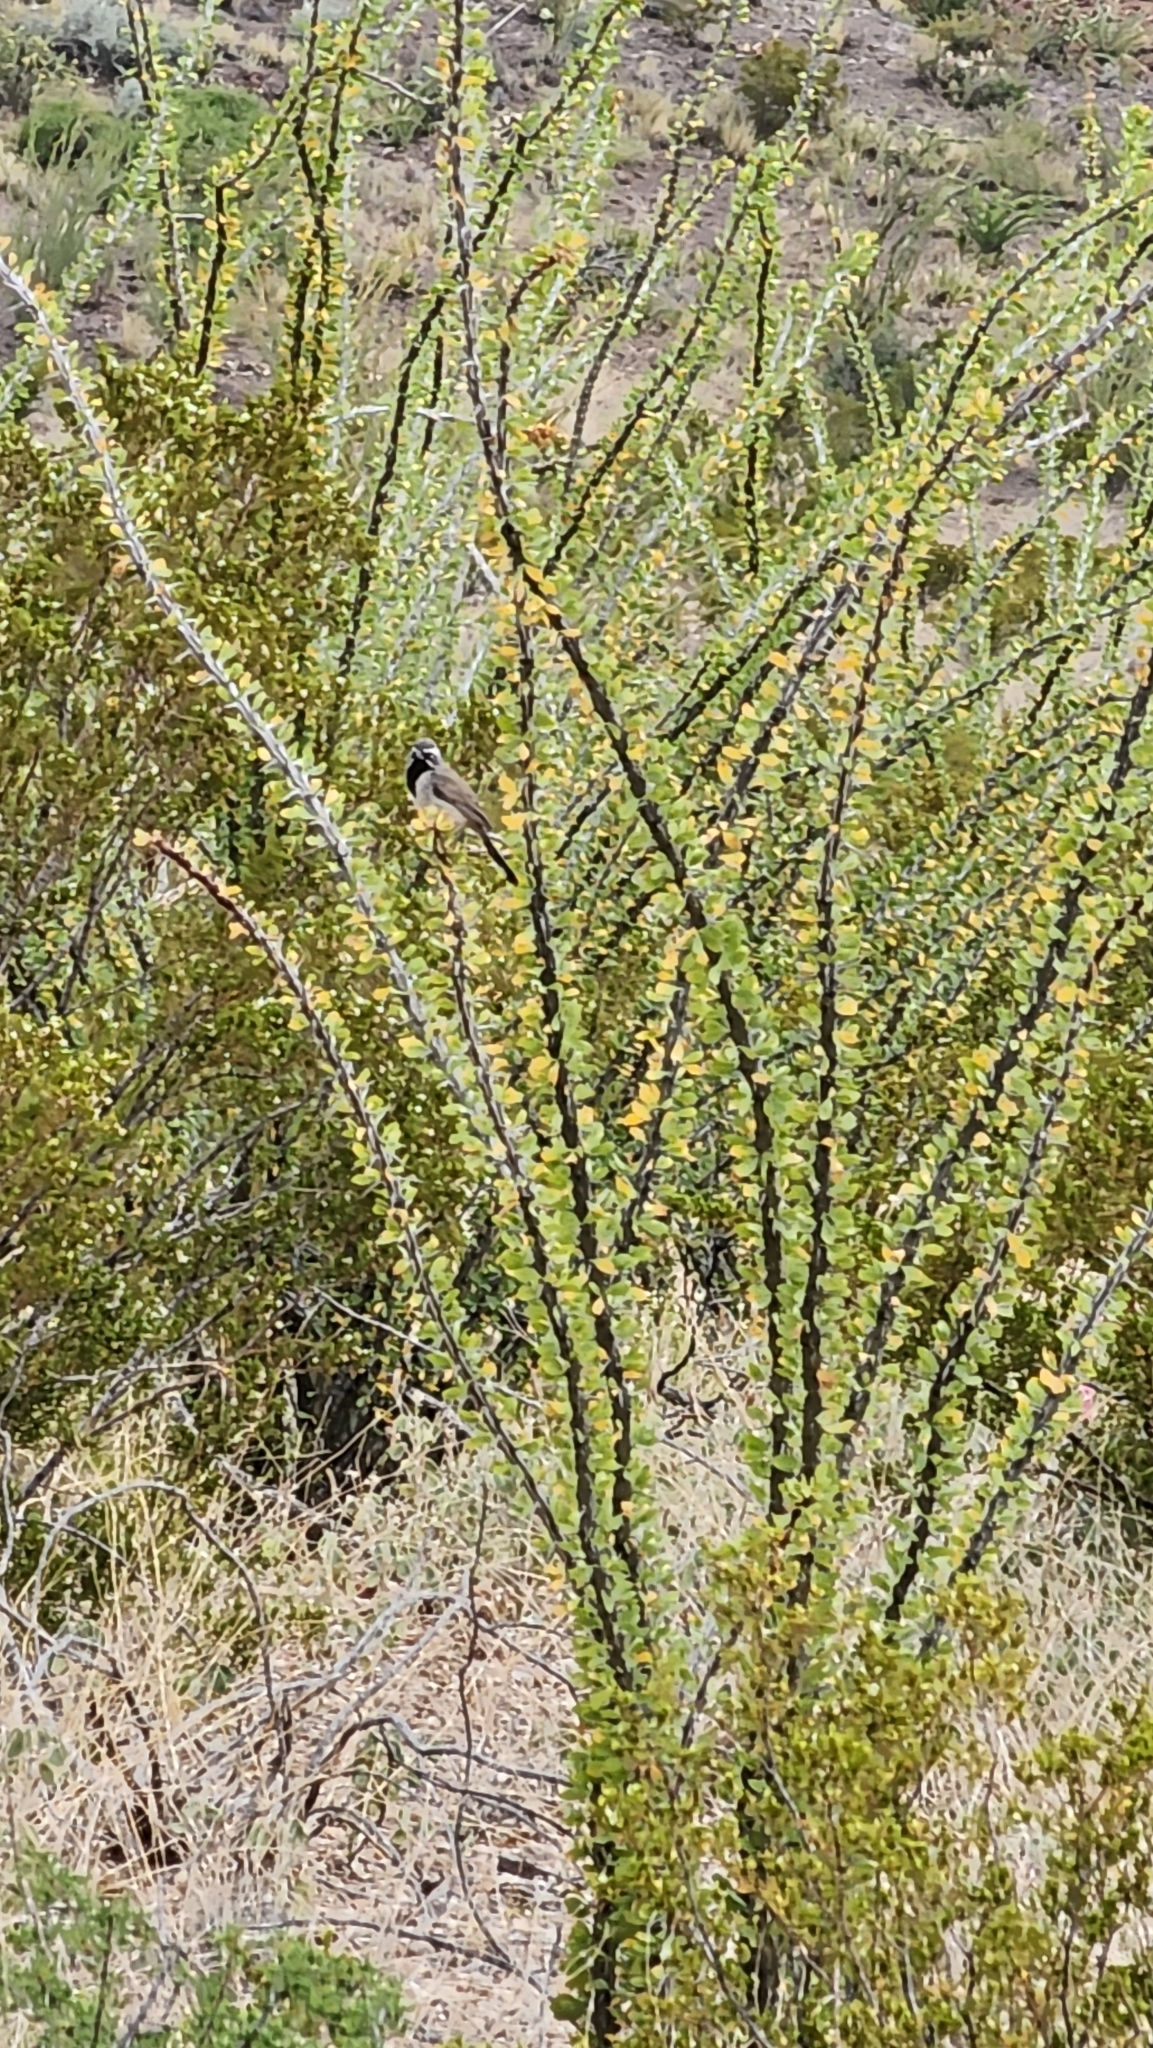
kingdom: Animalia
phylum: Chordata
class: Aves
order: Passeriformes
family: Passerellidae
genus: Amphispiza
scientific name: Amphispiza bilineata
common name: Black-throated sparrow
